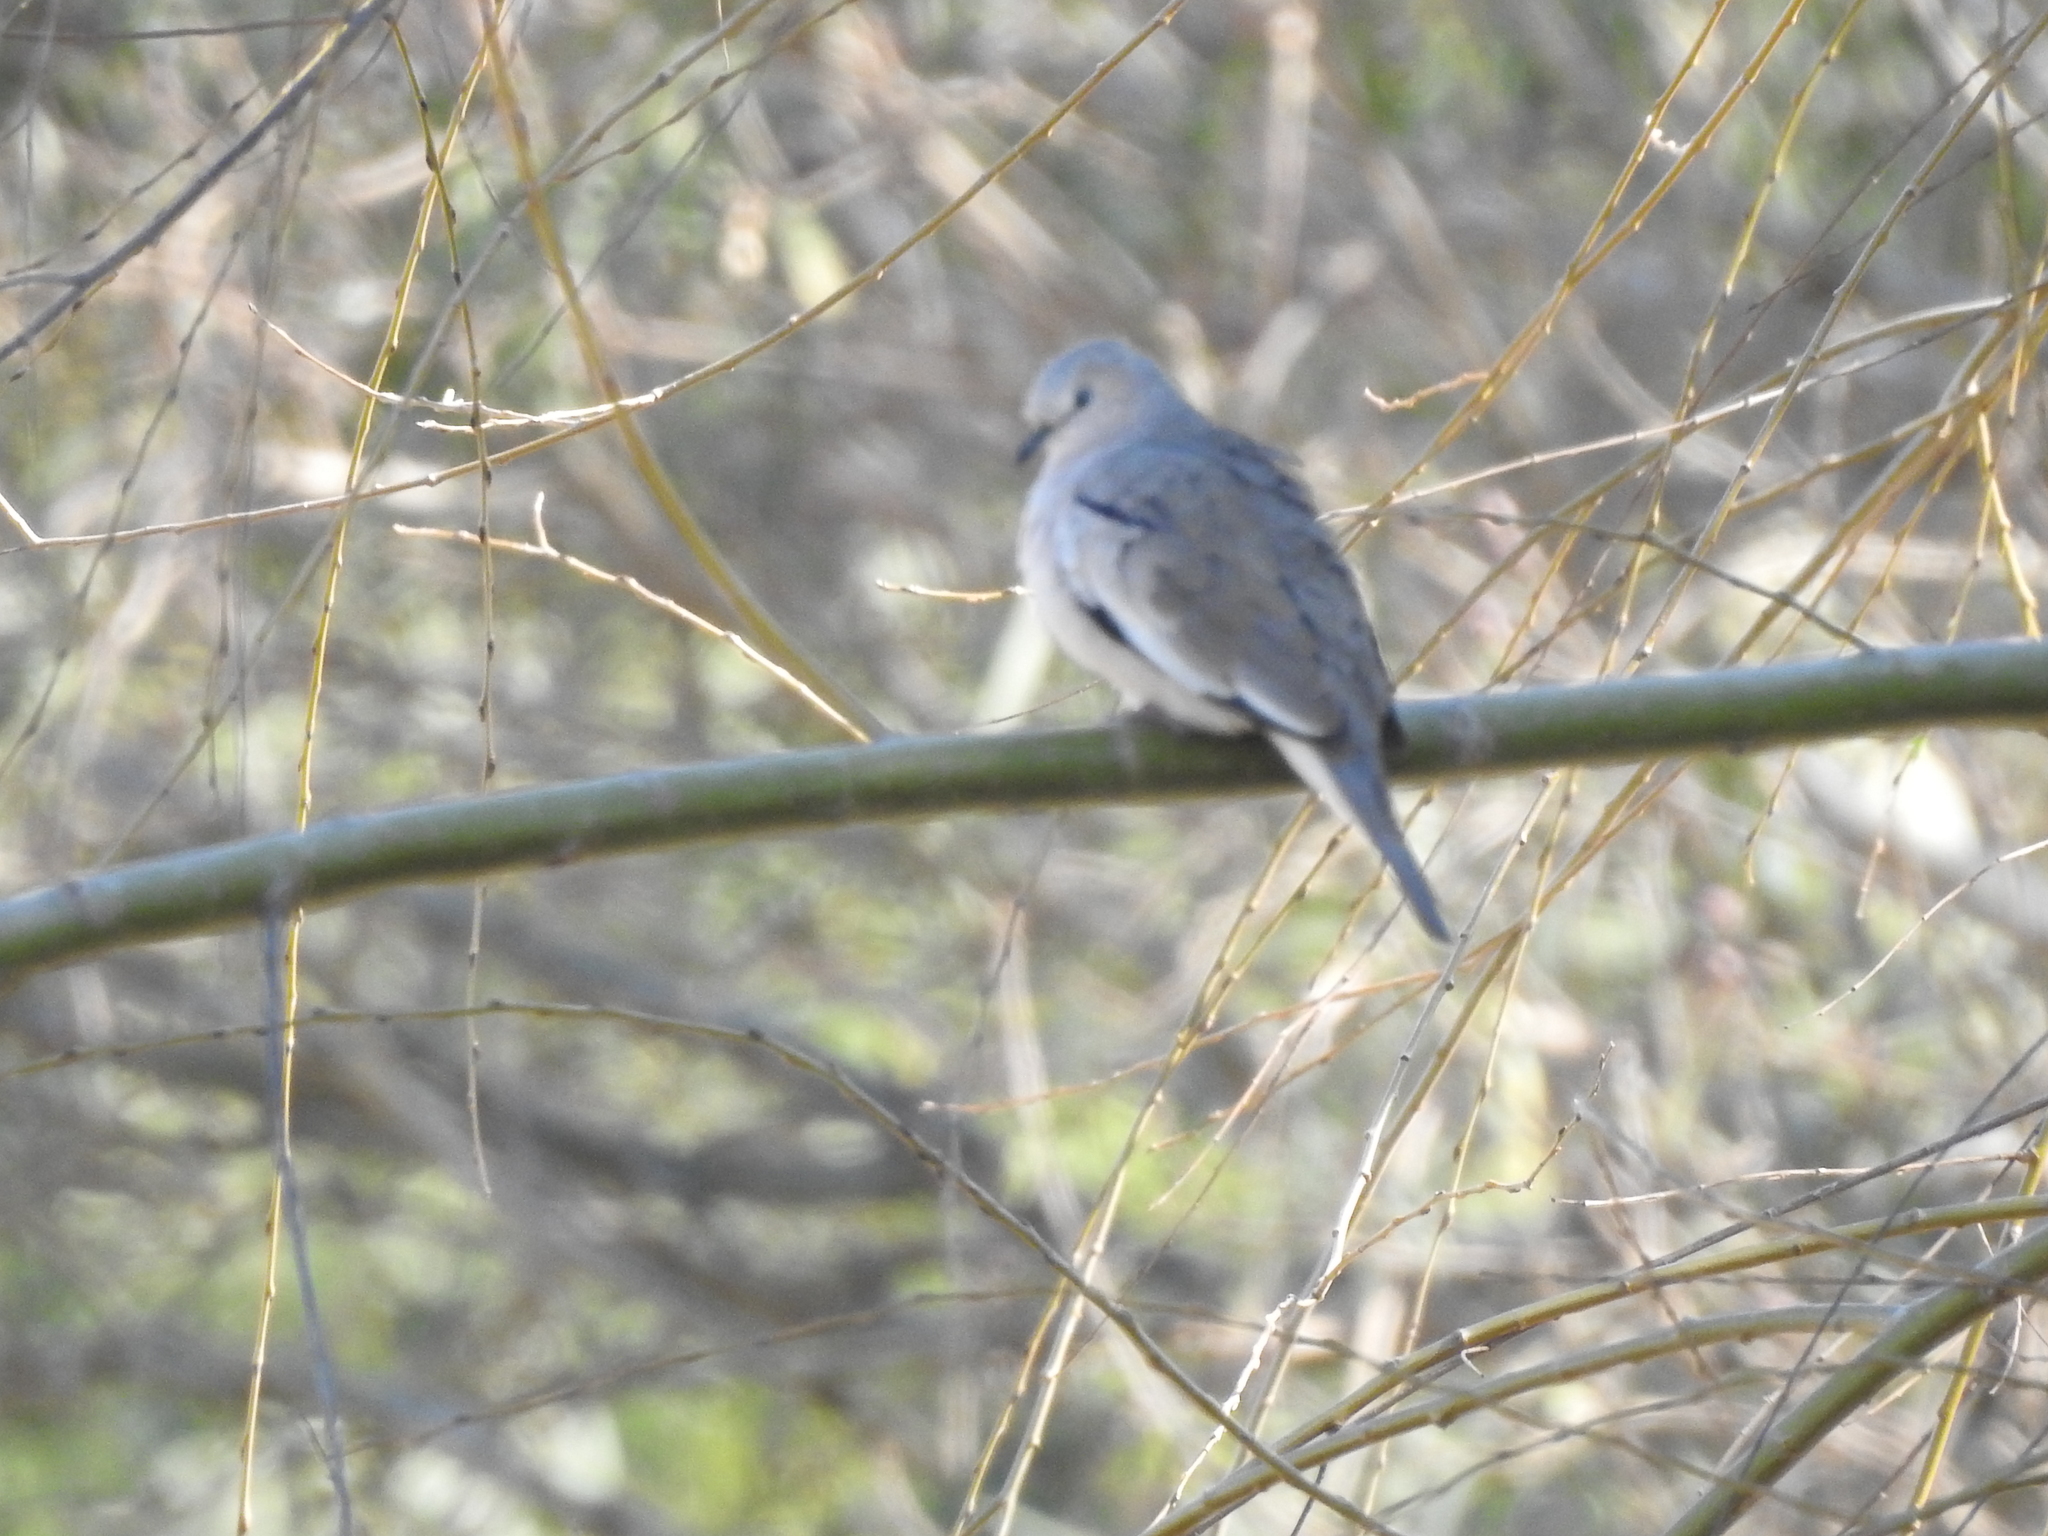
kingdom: Animalia
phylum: Chordata
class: Aves
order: Columbiformes
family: Columbidae
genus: Columbina
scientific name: Columbina picui
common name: Picui ground dove
